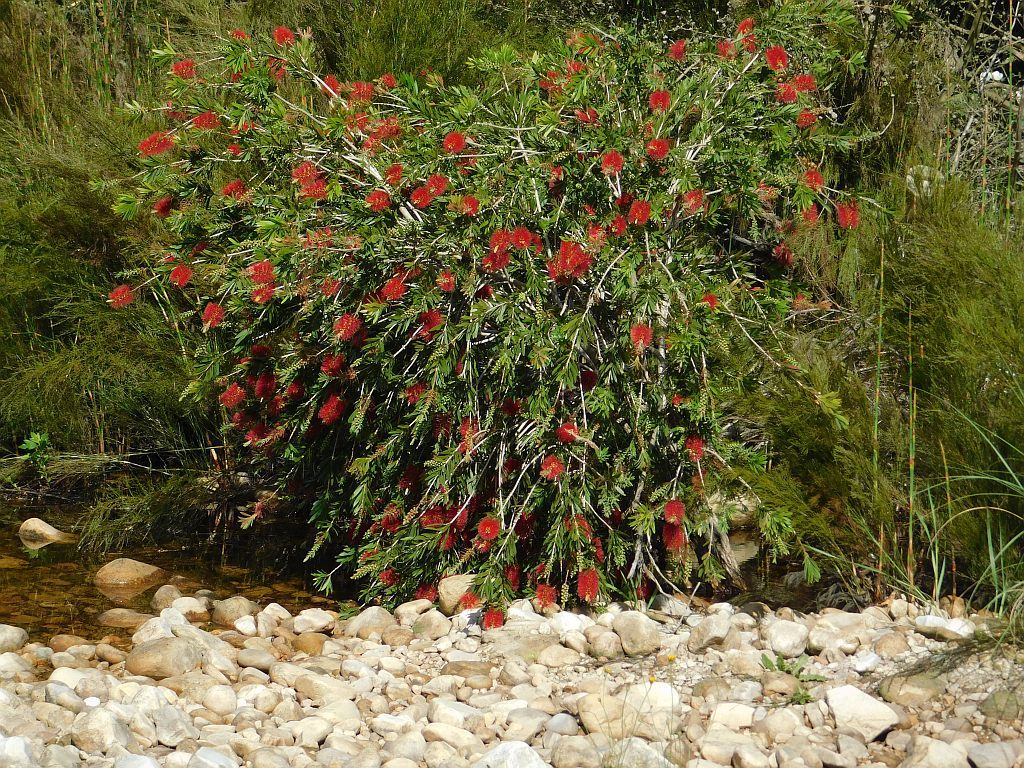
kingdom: Plantae
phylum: Tracheophyta
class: Magnoliopsida
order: Myrtales
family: Myrtaceae
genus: Callistemon
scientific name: Callistemon viminalis
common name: Drooping bottlebrush
